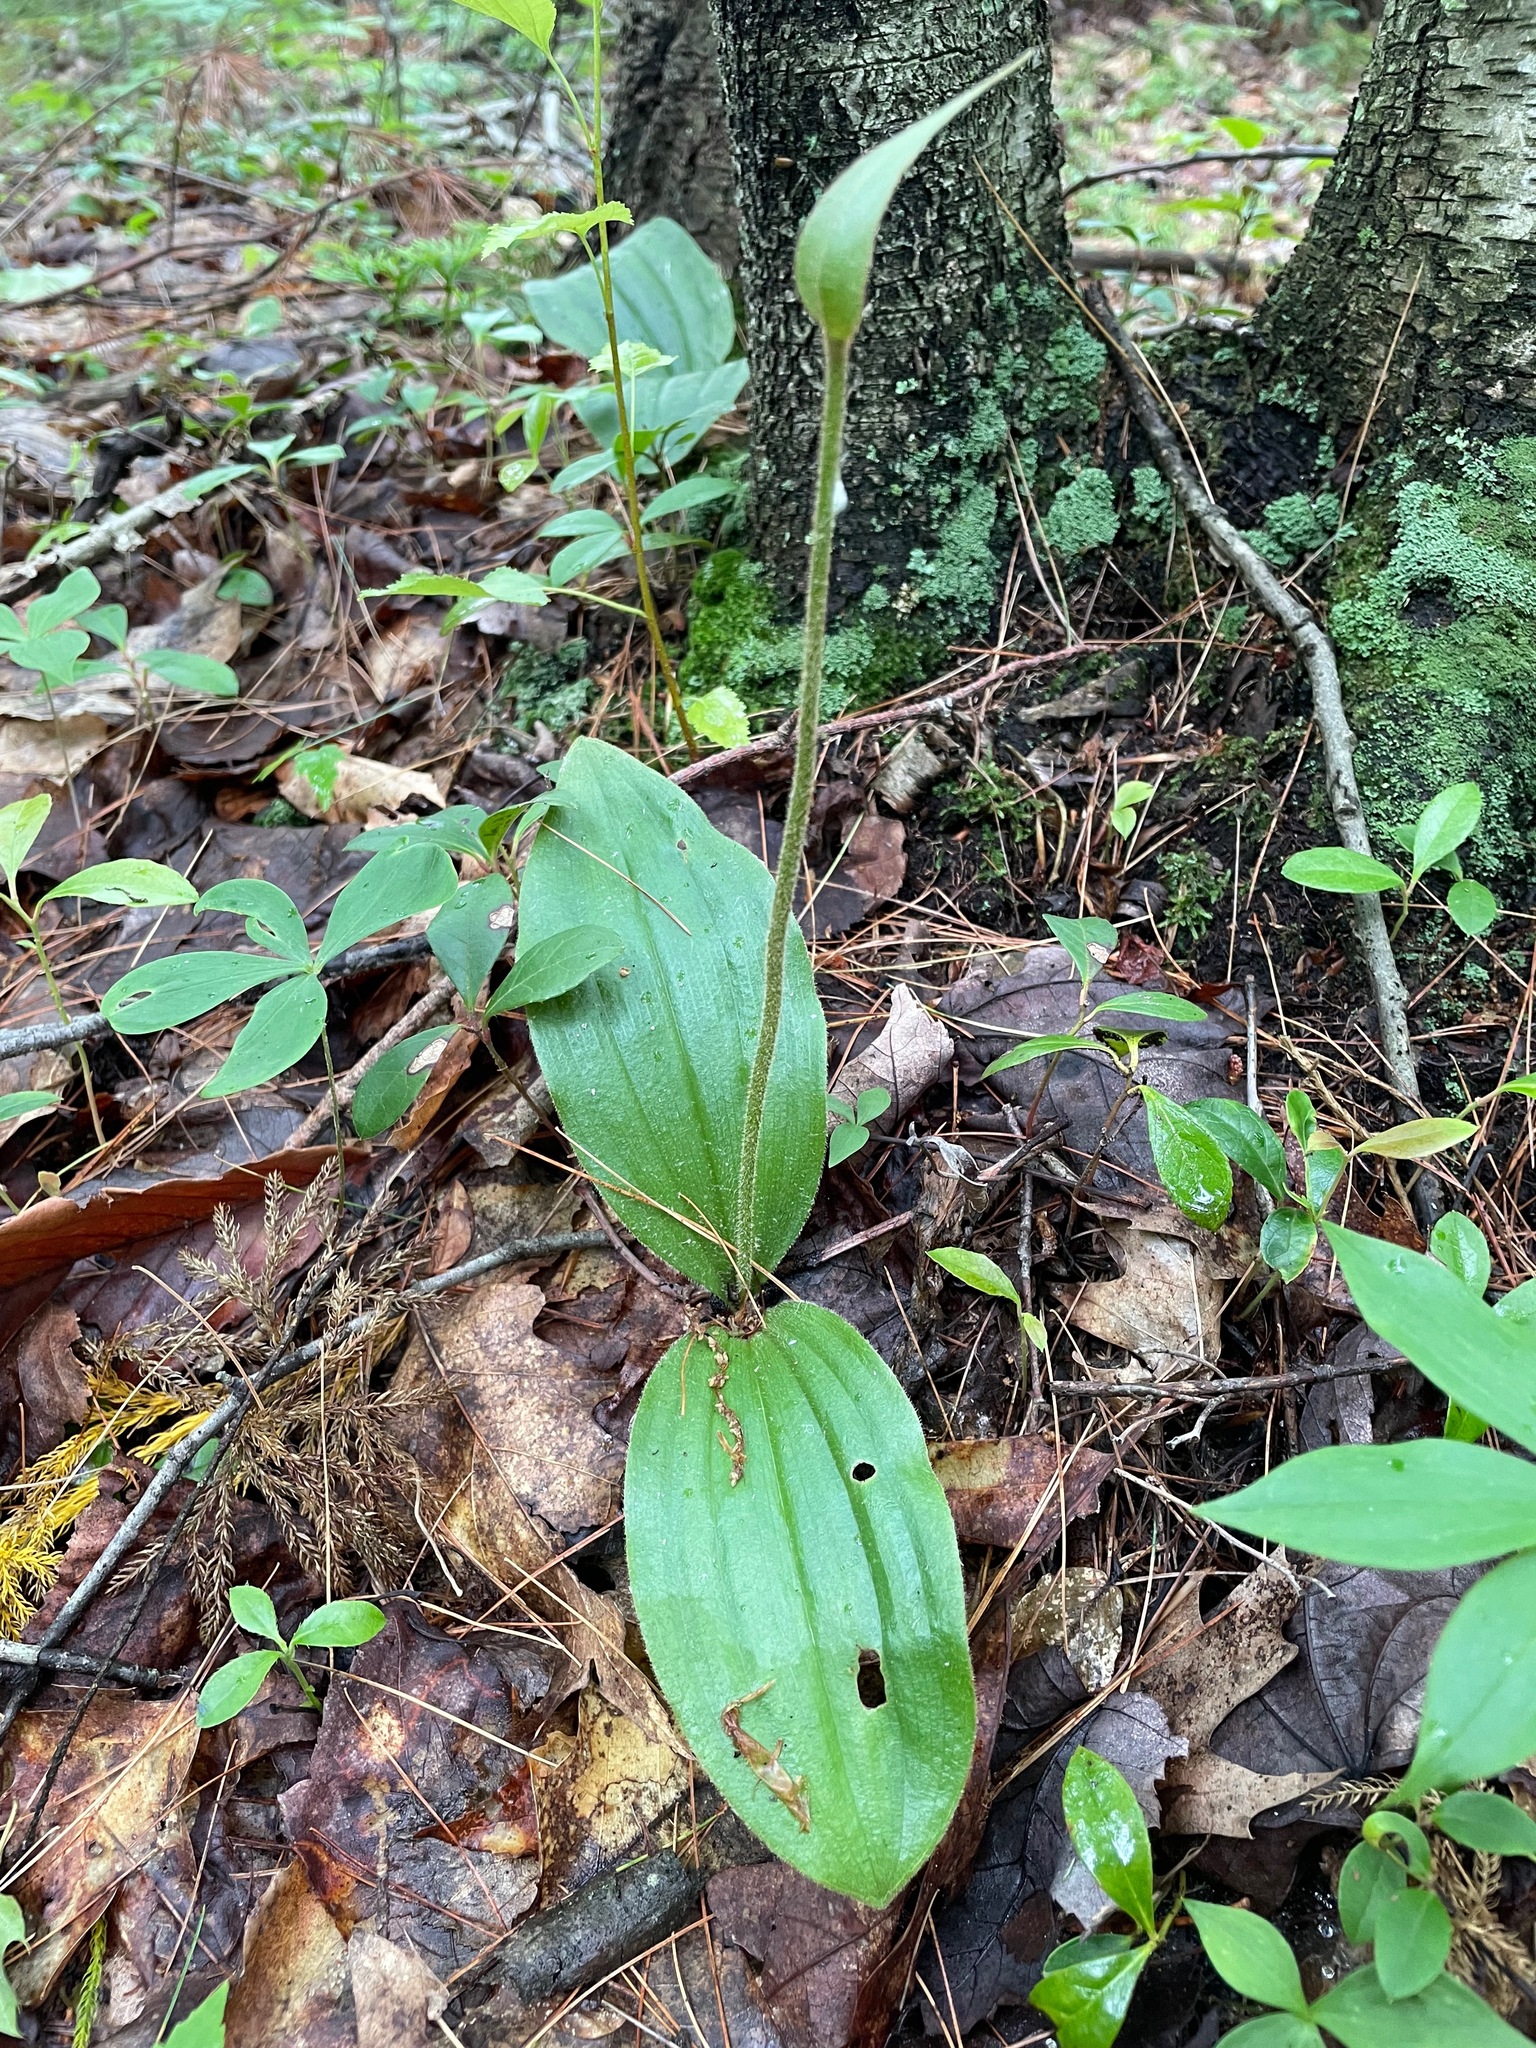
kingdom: Plantae
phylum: Tracheophyta
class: Liliopsida
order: Asparagales
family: Orchidaceae
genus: Cypripedium
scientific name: Cypripedium acaule
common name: Pink lady's-slipper
